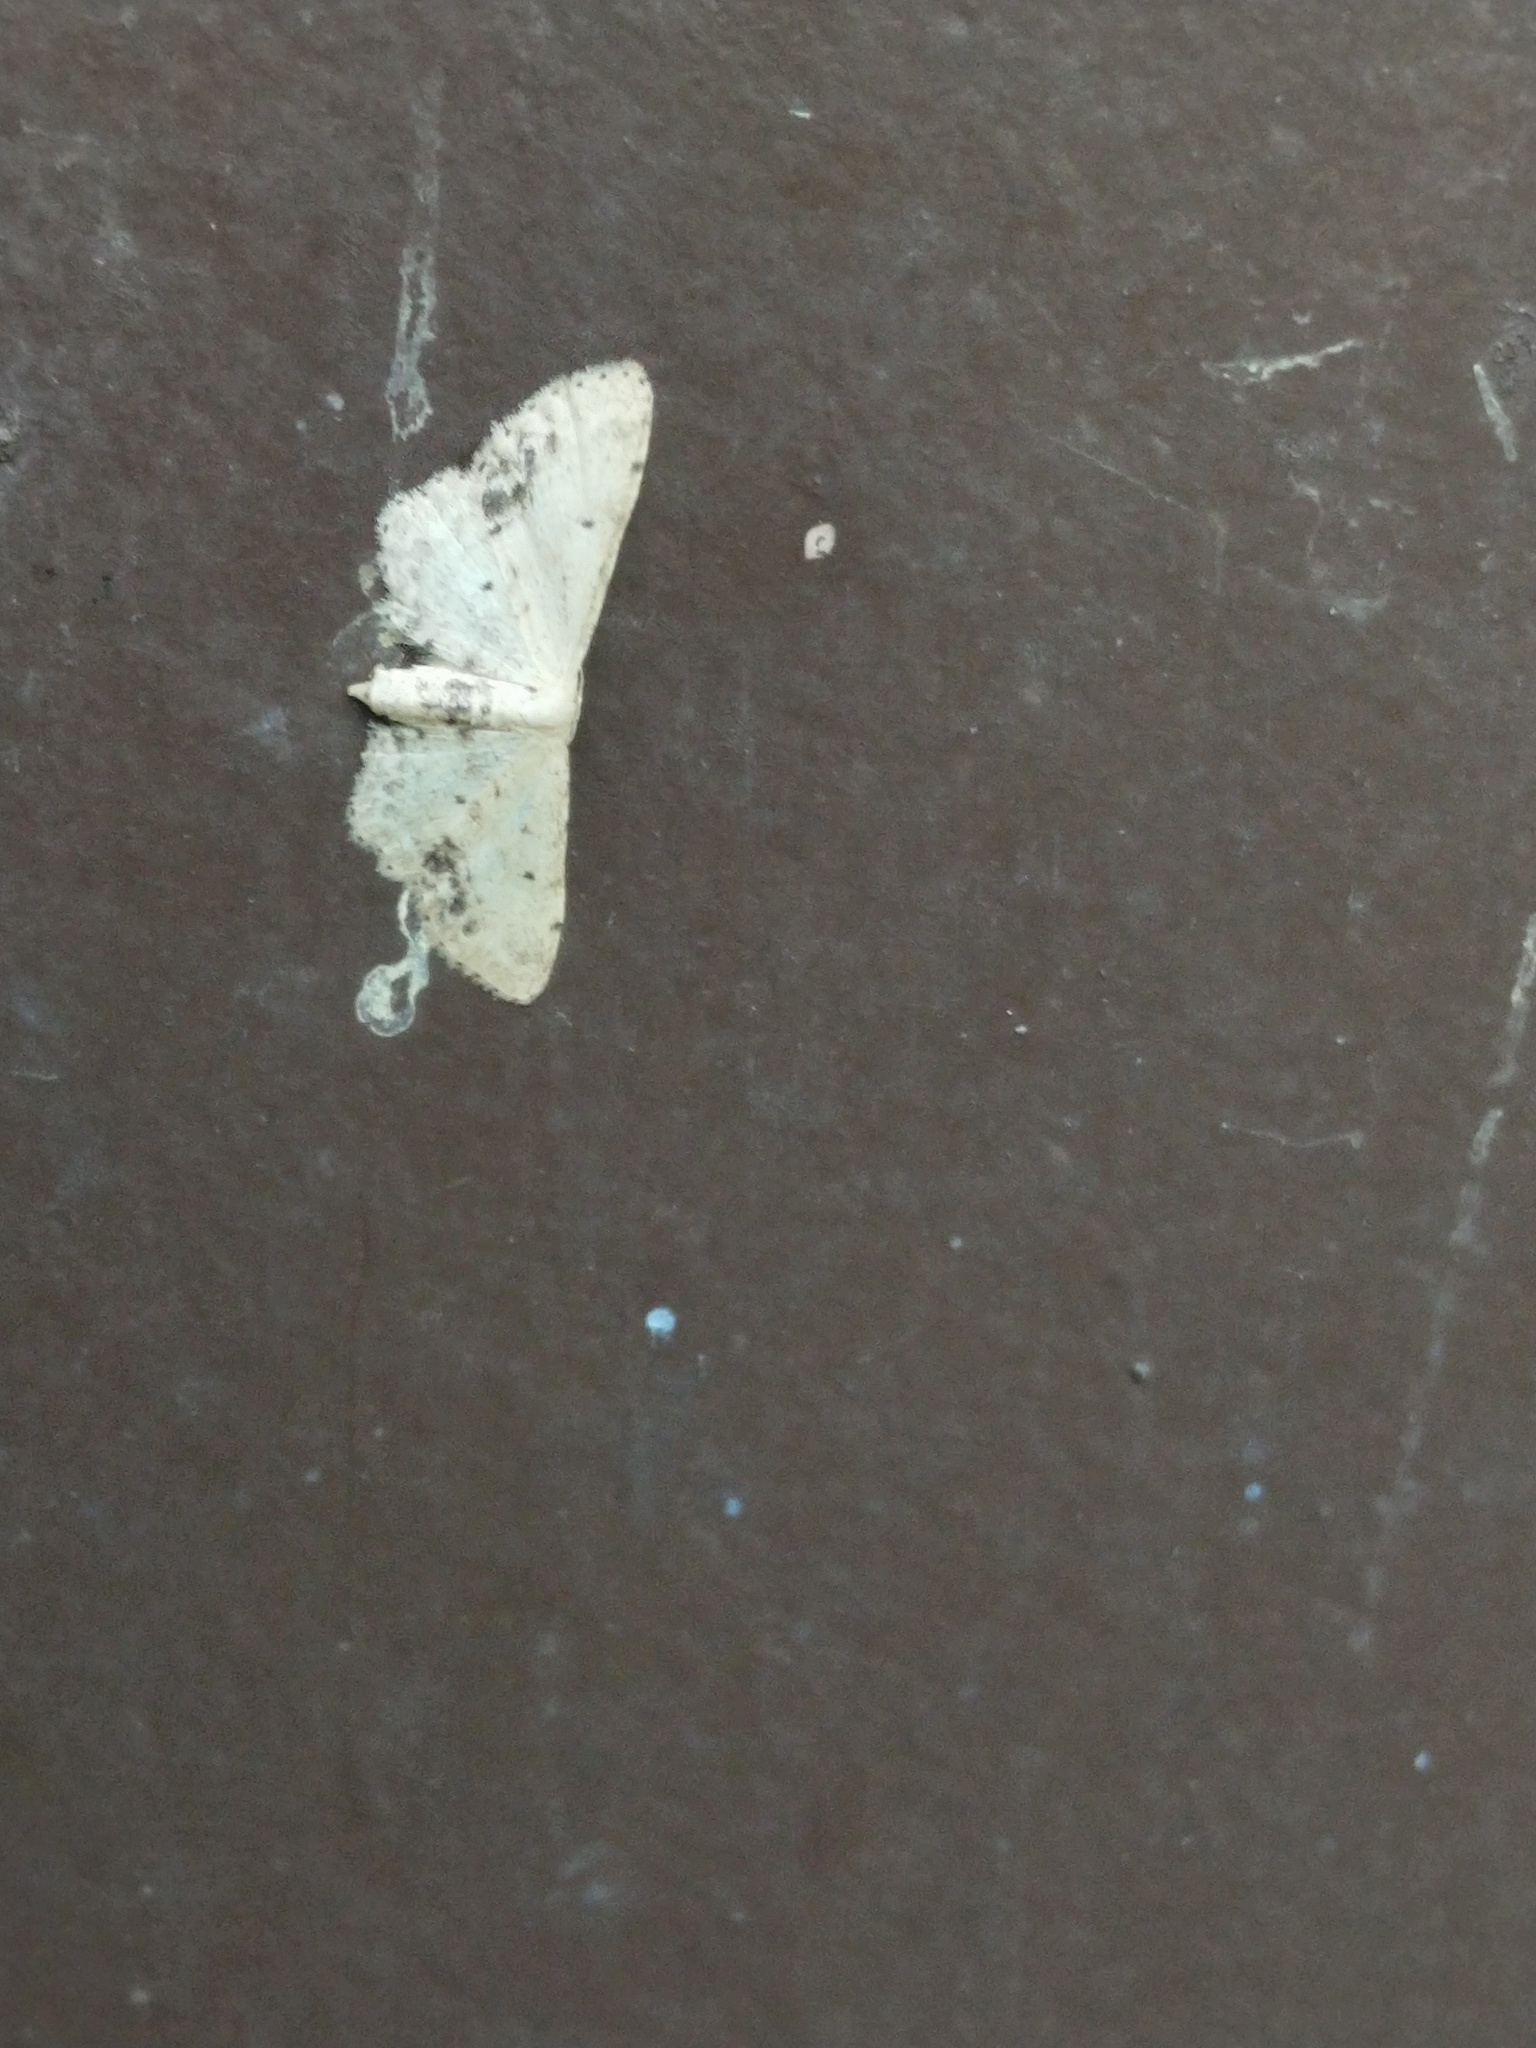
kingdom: Animalia
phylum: Arthropoda
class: Insecta
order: Lepidoptera
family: Geometridae
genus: Idaea
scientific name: Idaea dimidiata
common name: Single-dotted wave
